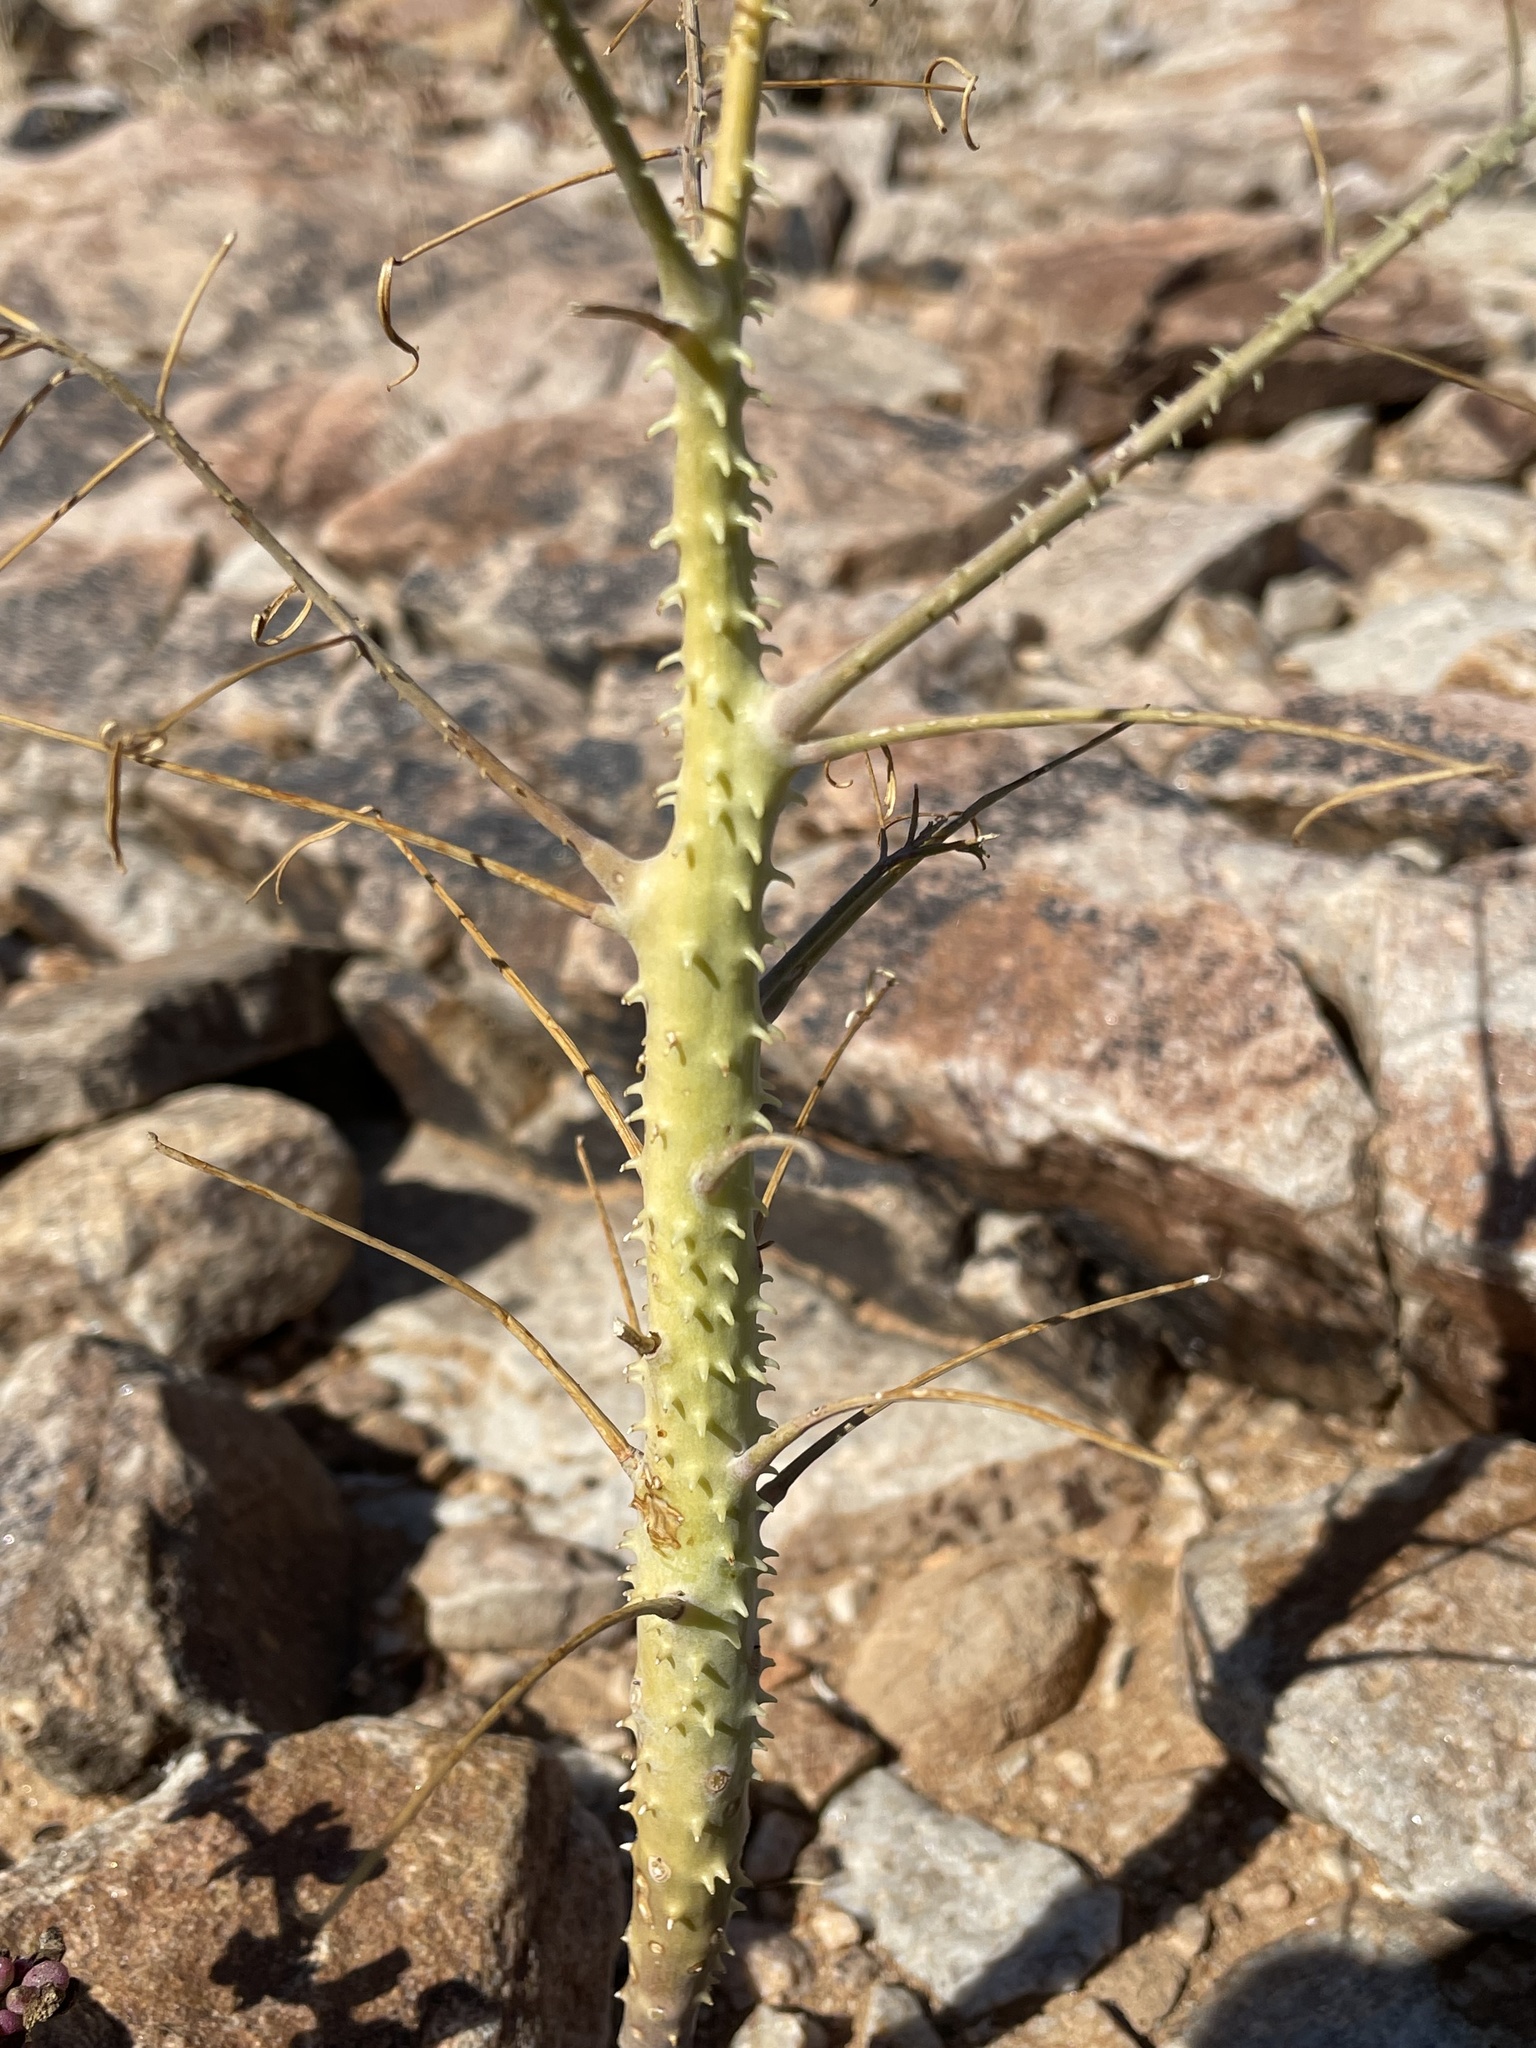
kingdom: Plantae
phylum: Tracheophyta
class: Magnoliopsida
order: Brassicales
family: Cleomaceae
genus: Coalisina
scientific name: Coalisina angustifolia
